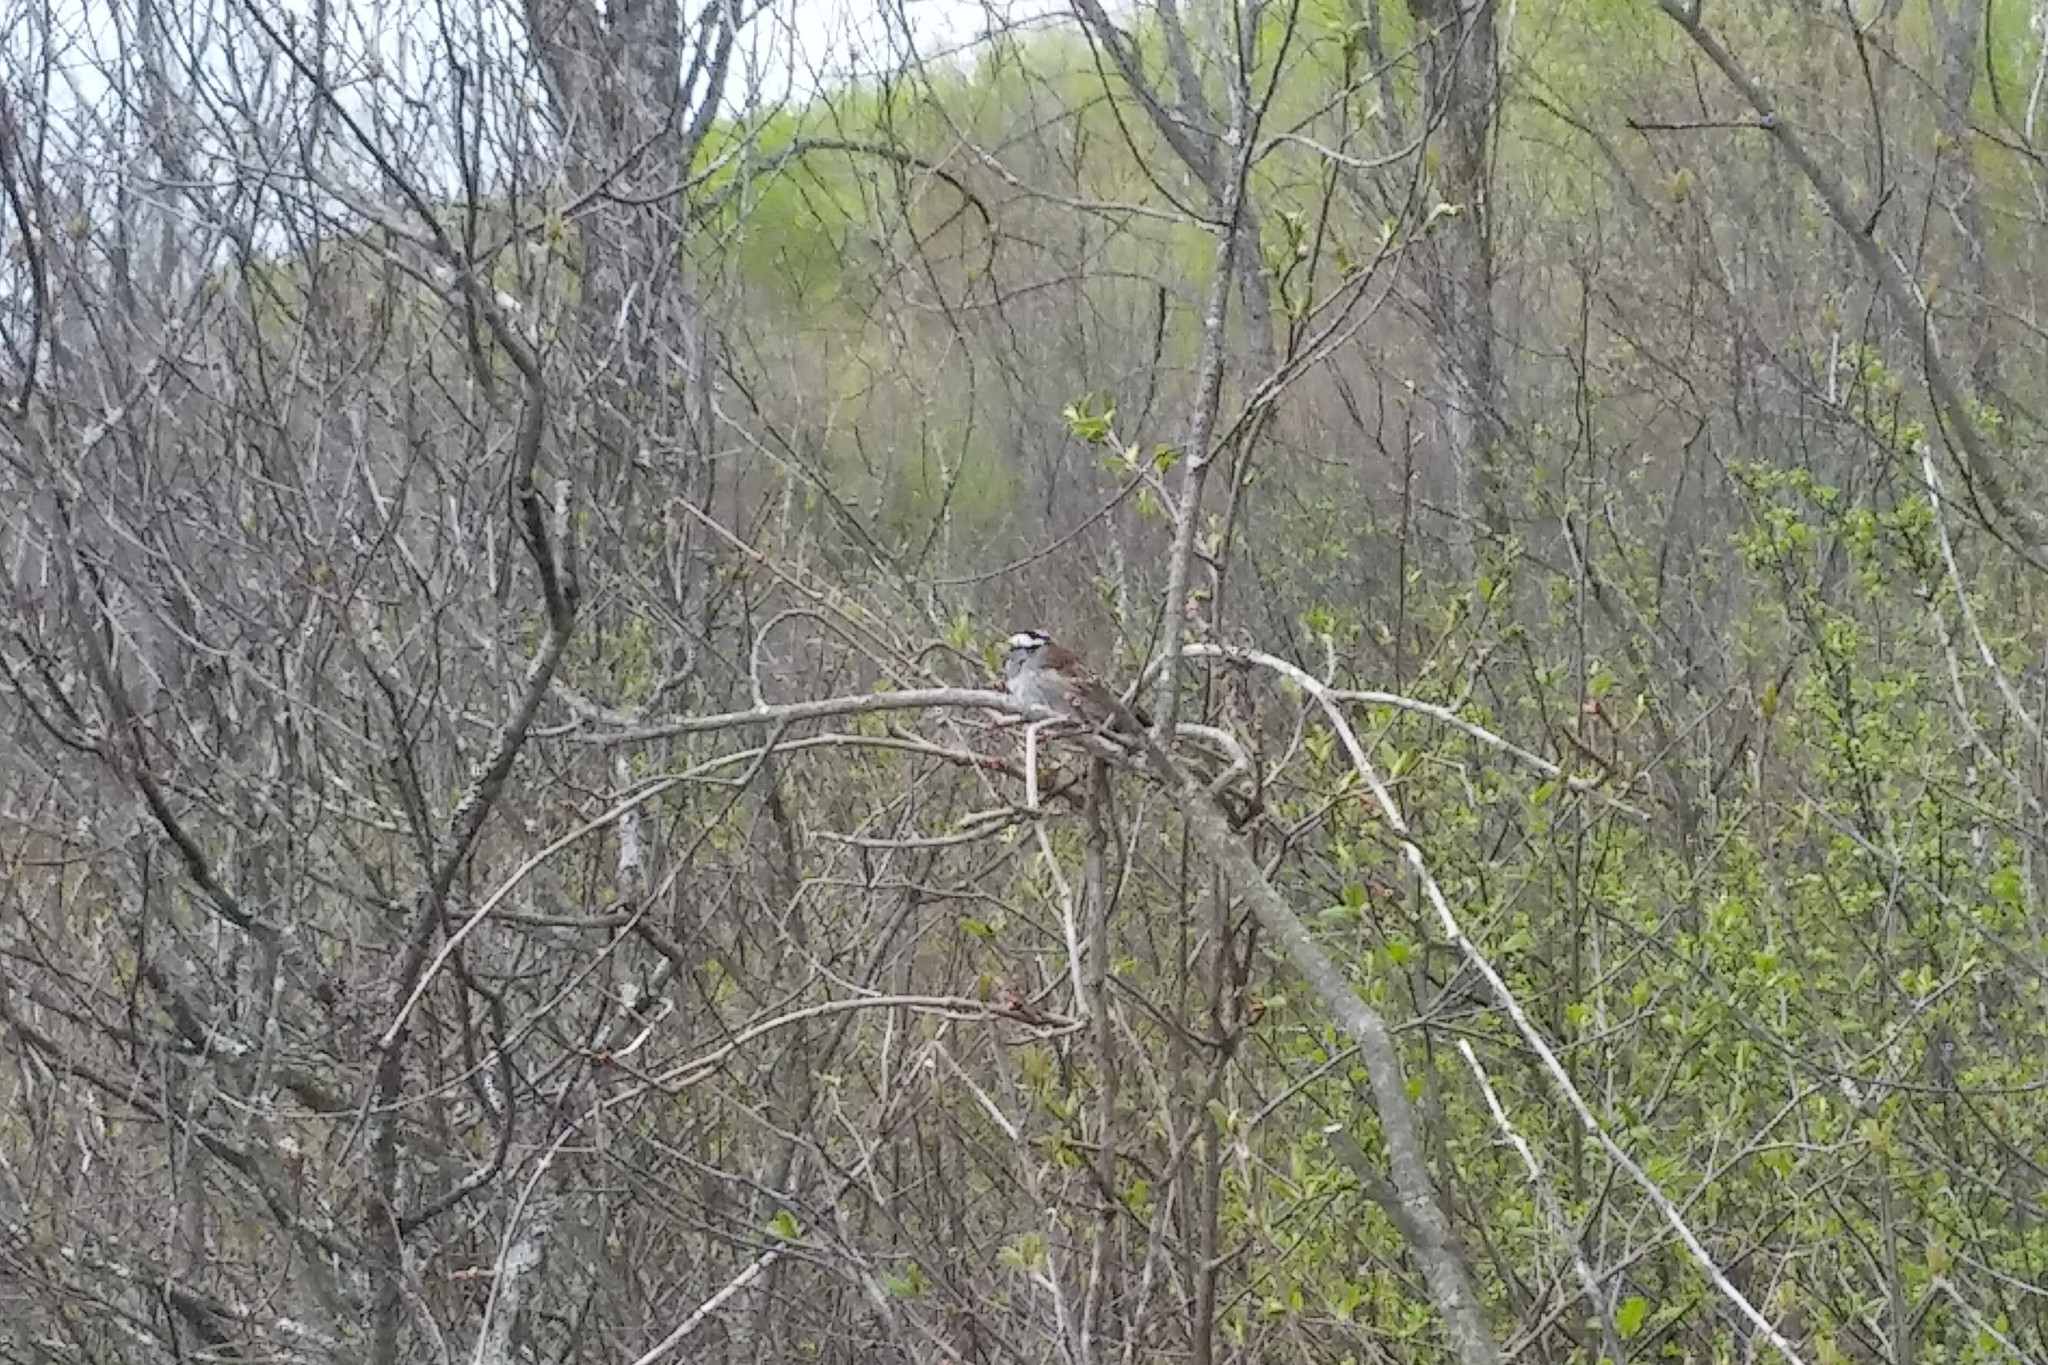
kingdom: Animalia
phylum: Chordata
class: Aves
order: Passeriformes
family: Passerellidae
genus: Zonotrichia
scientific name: Zonotrichia albicollis
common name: White-throated sparrow
